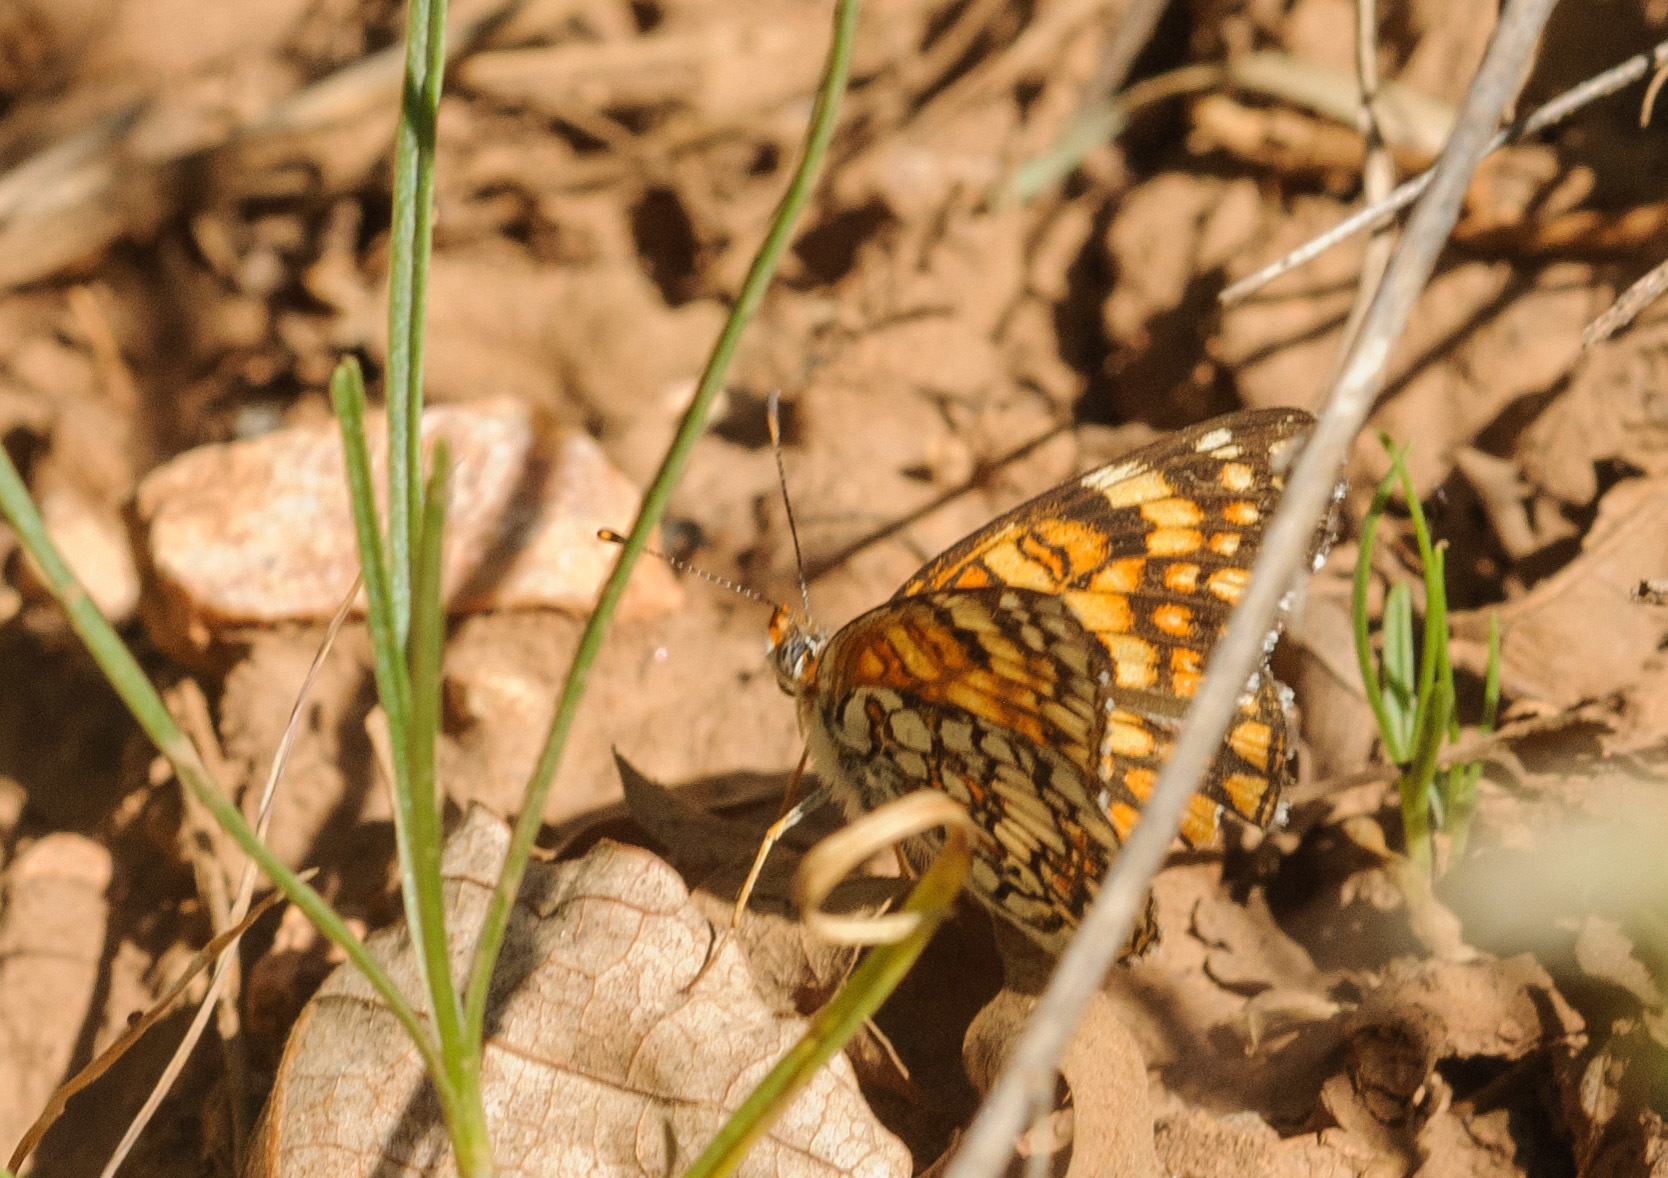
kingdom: Animalia
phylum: Arthropoda
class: Insecta
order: Lepidoptera
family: Nymphalidae
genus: Chlosyne
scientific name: Chlosyne acastus
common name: Sagebrush checkerspot
